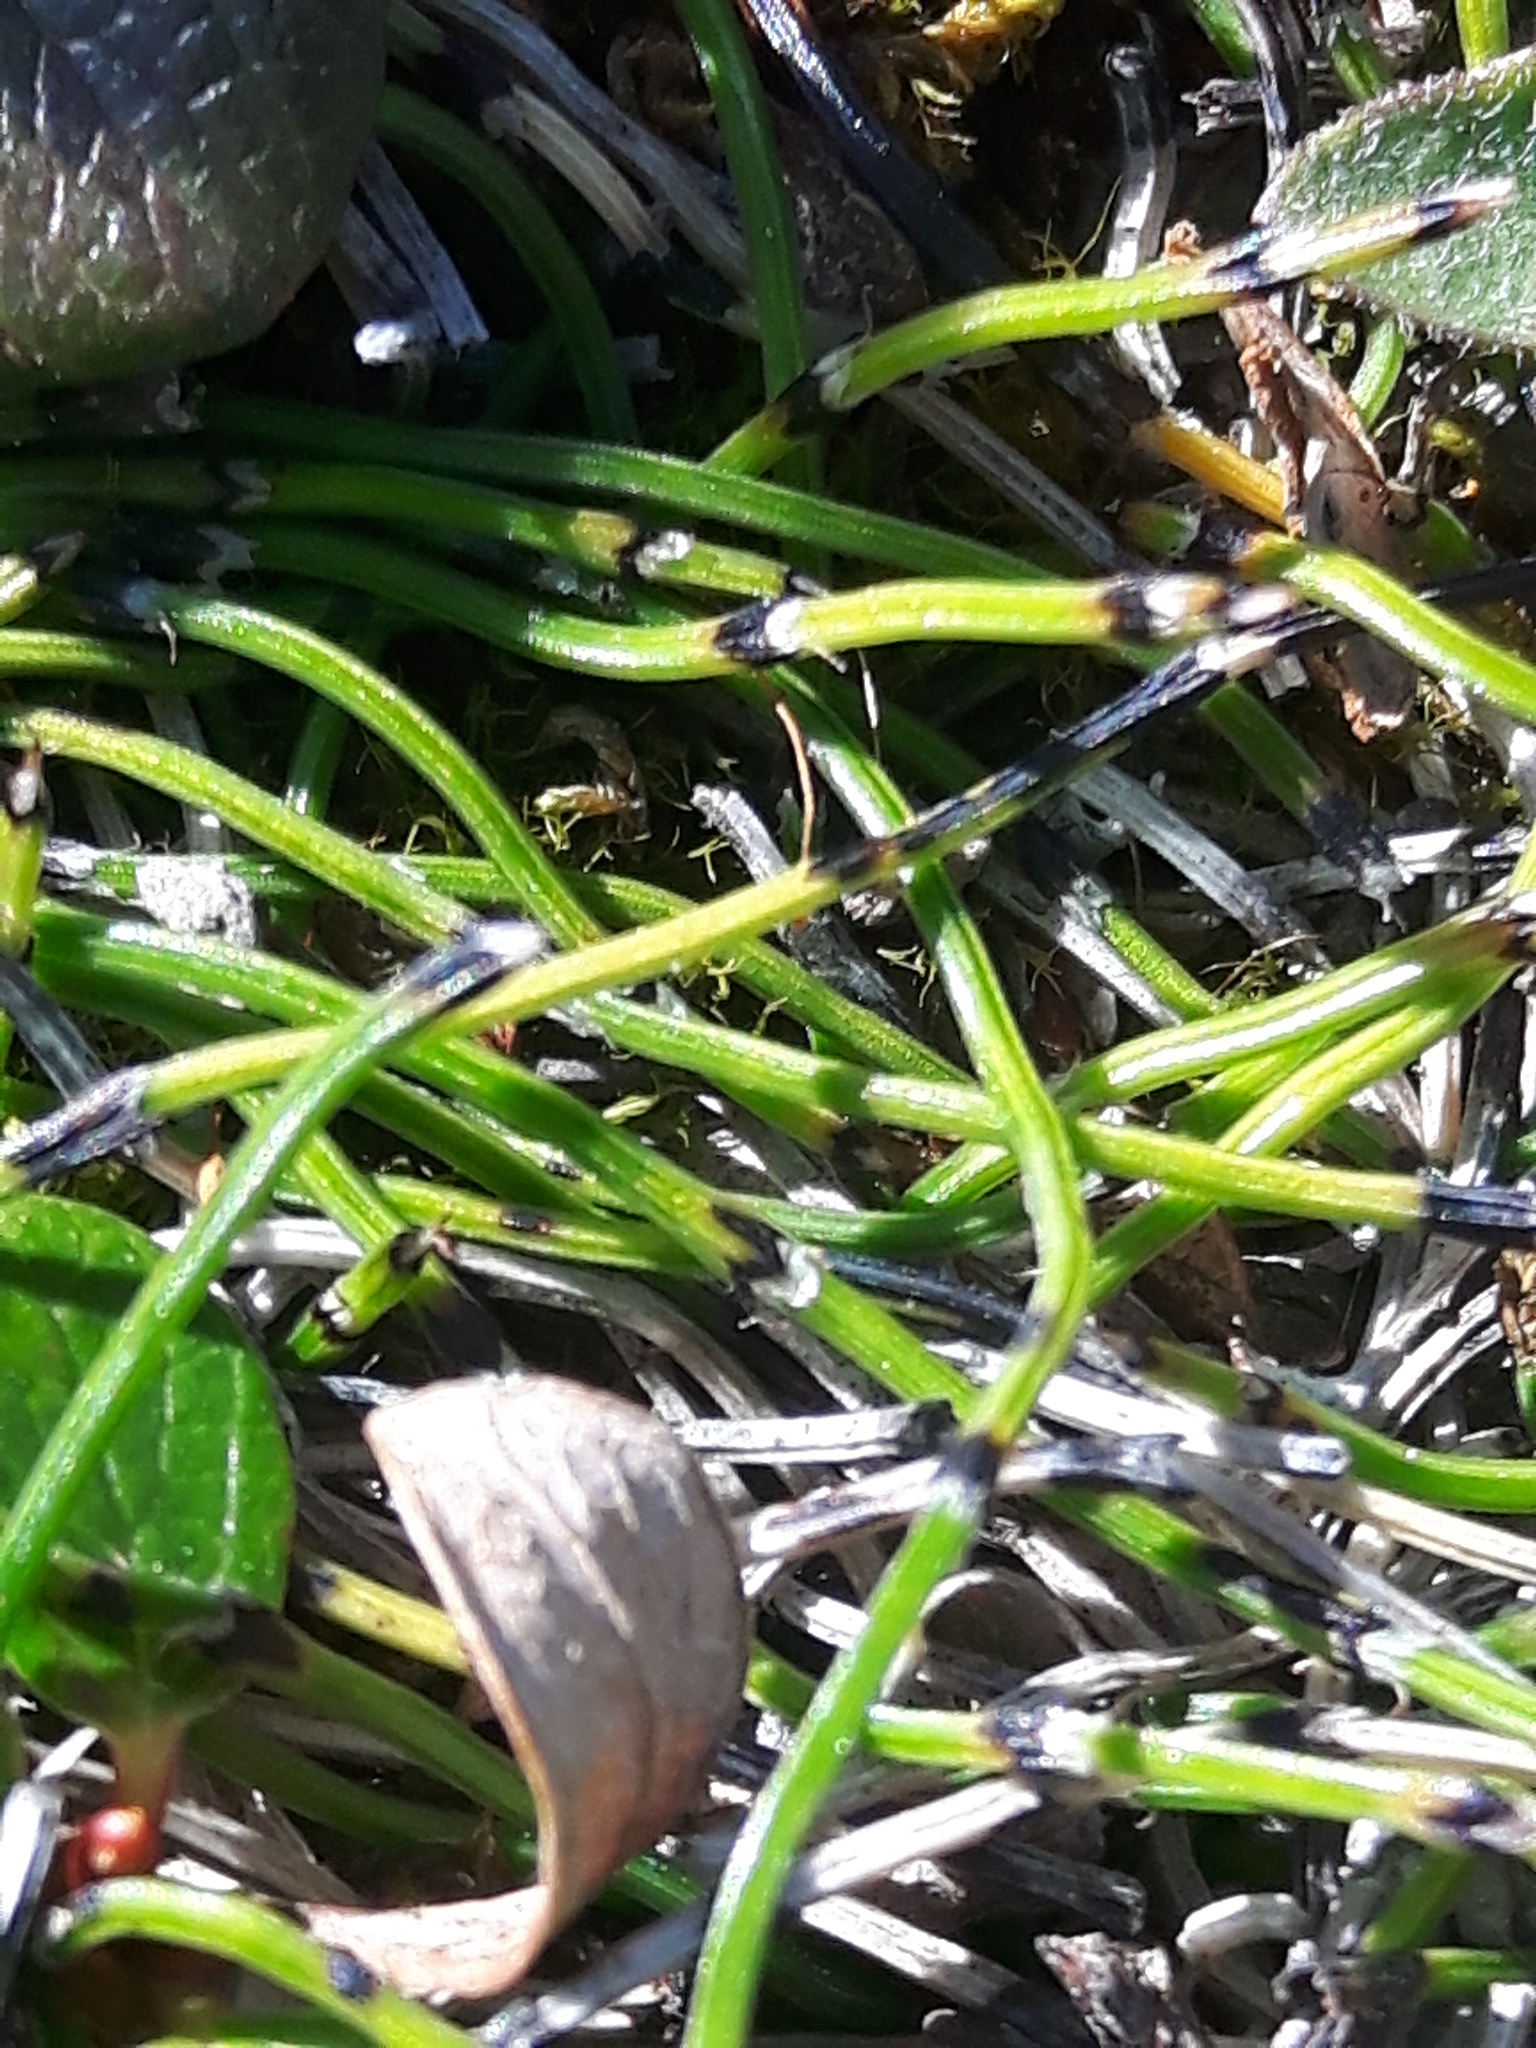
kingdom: Plantae
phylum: Tracheophyta
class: Polypodiopsida
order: Equisetales
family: Equisetaceae
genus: Equisetum
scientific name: Equisetum scirpoides
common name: Delicate horsetail
